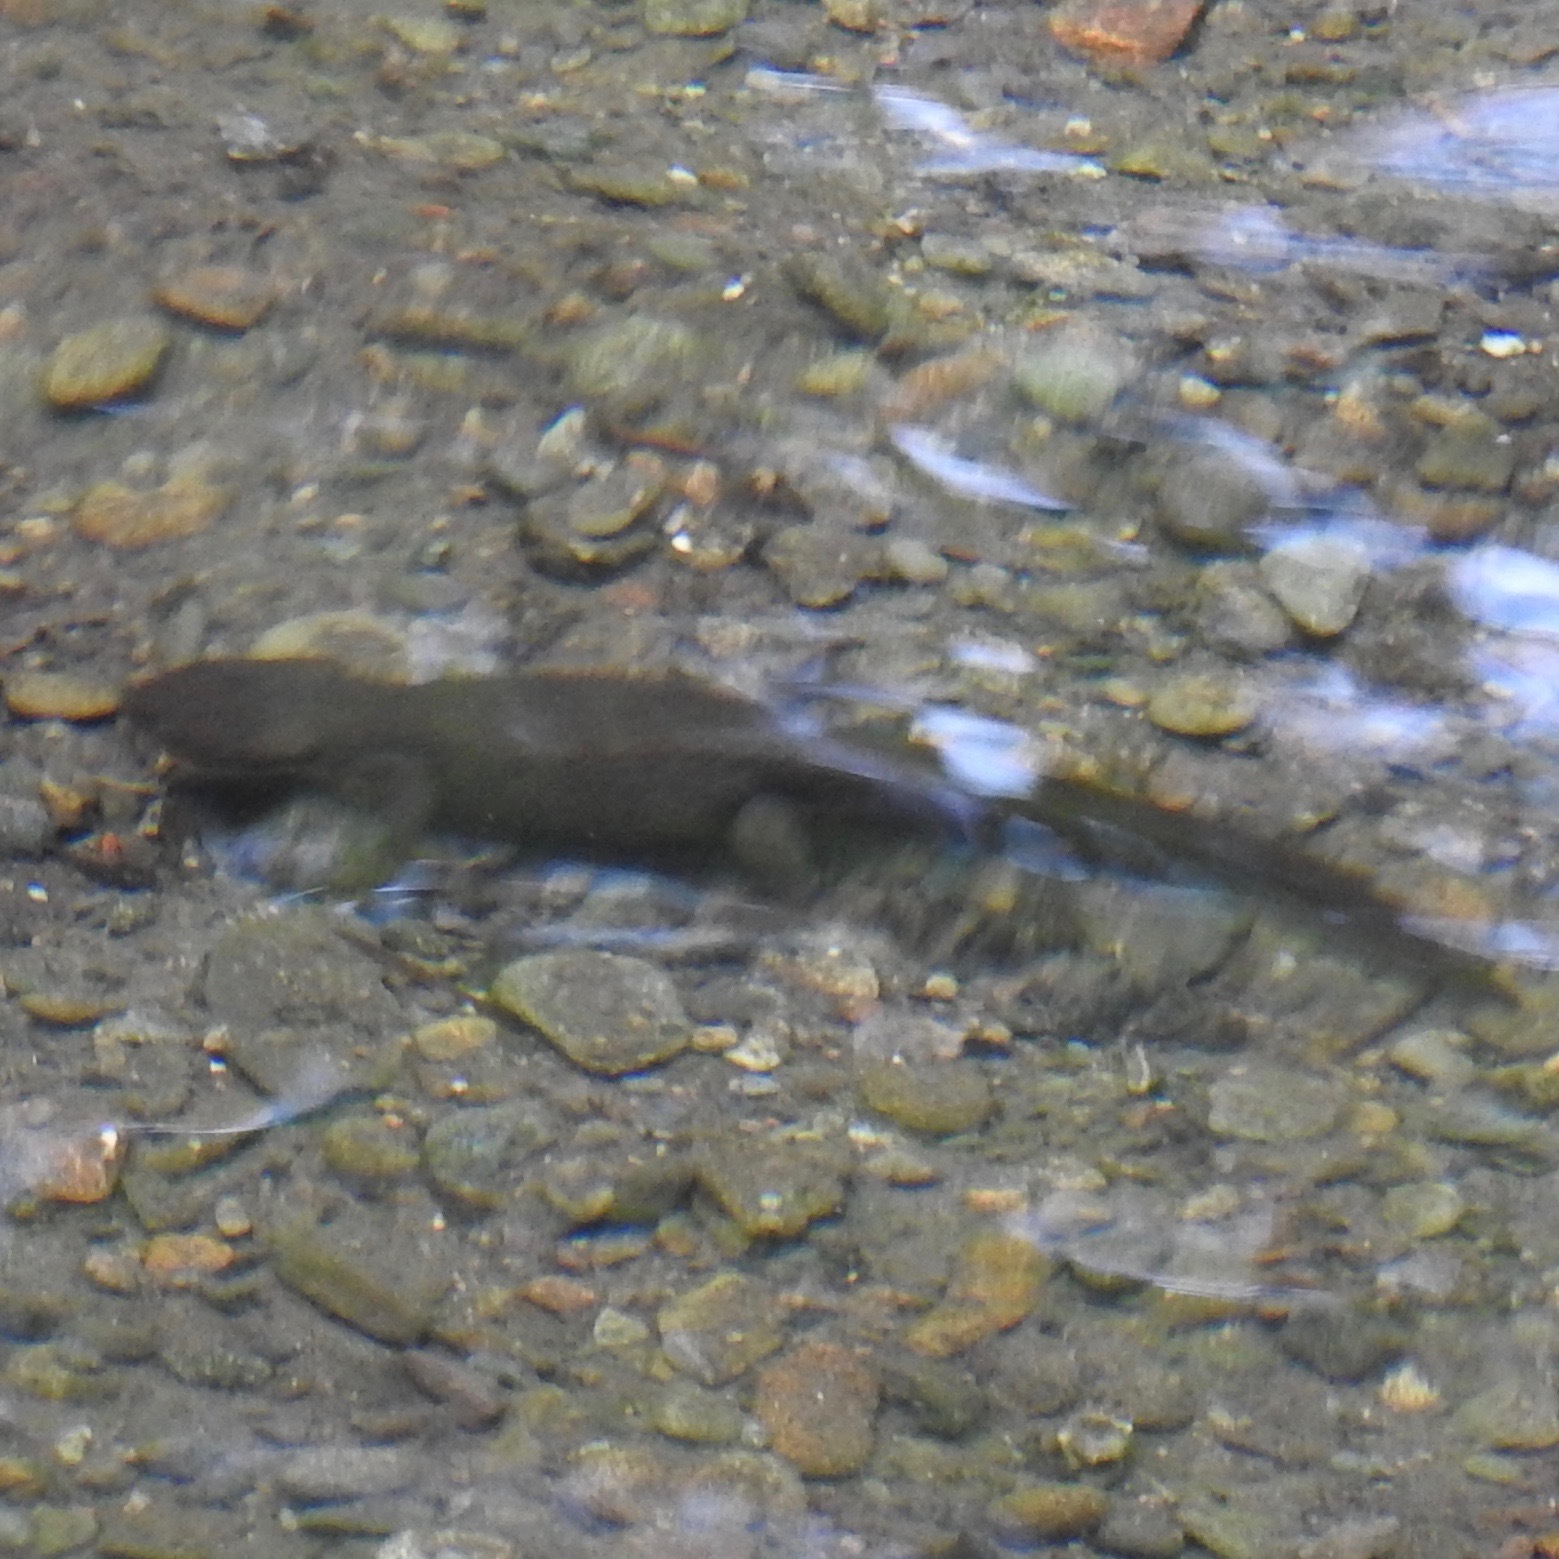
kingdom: Animalia
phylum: Chordata
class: Amphibia
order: Caudata
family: Salamandridae
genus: Taricha
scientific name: Taricha granulosa
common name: Roughskin newt
